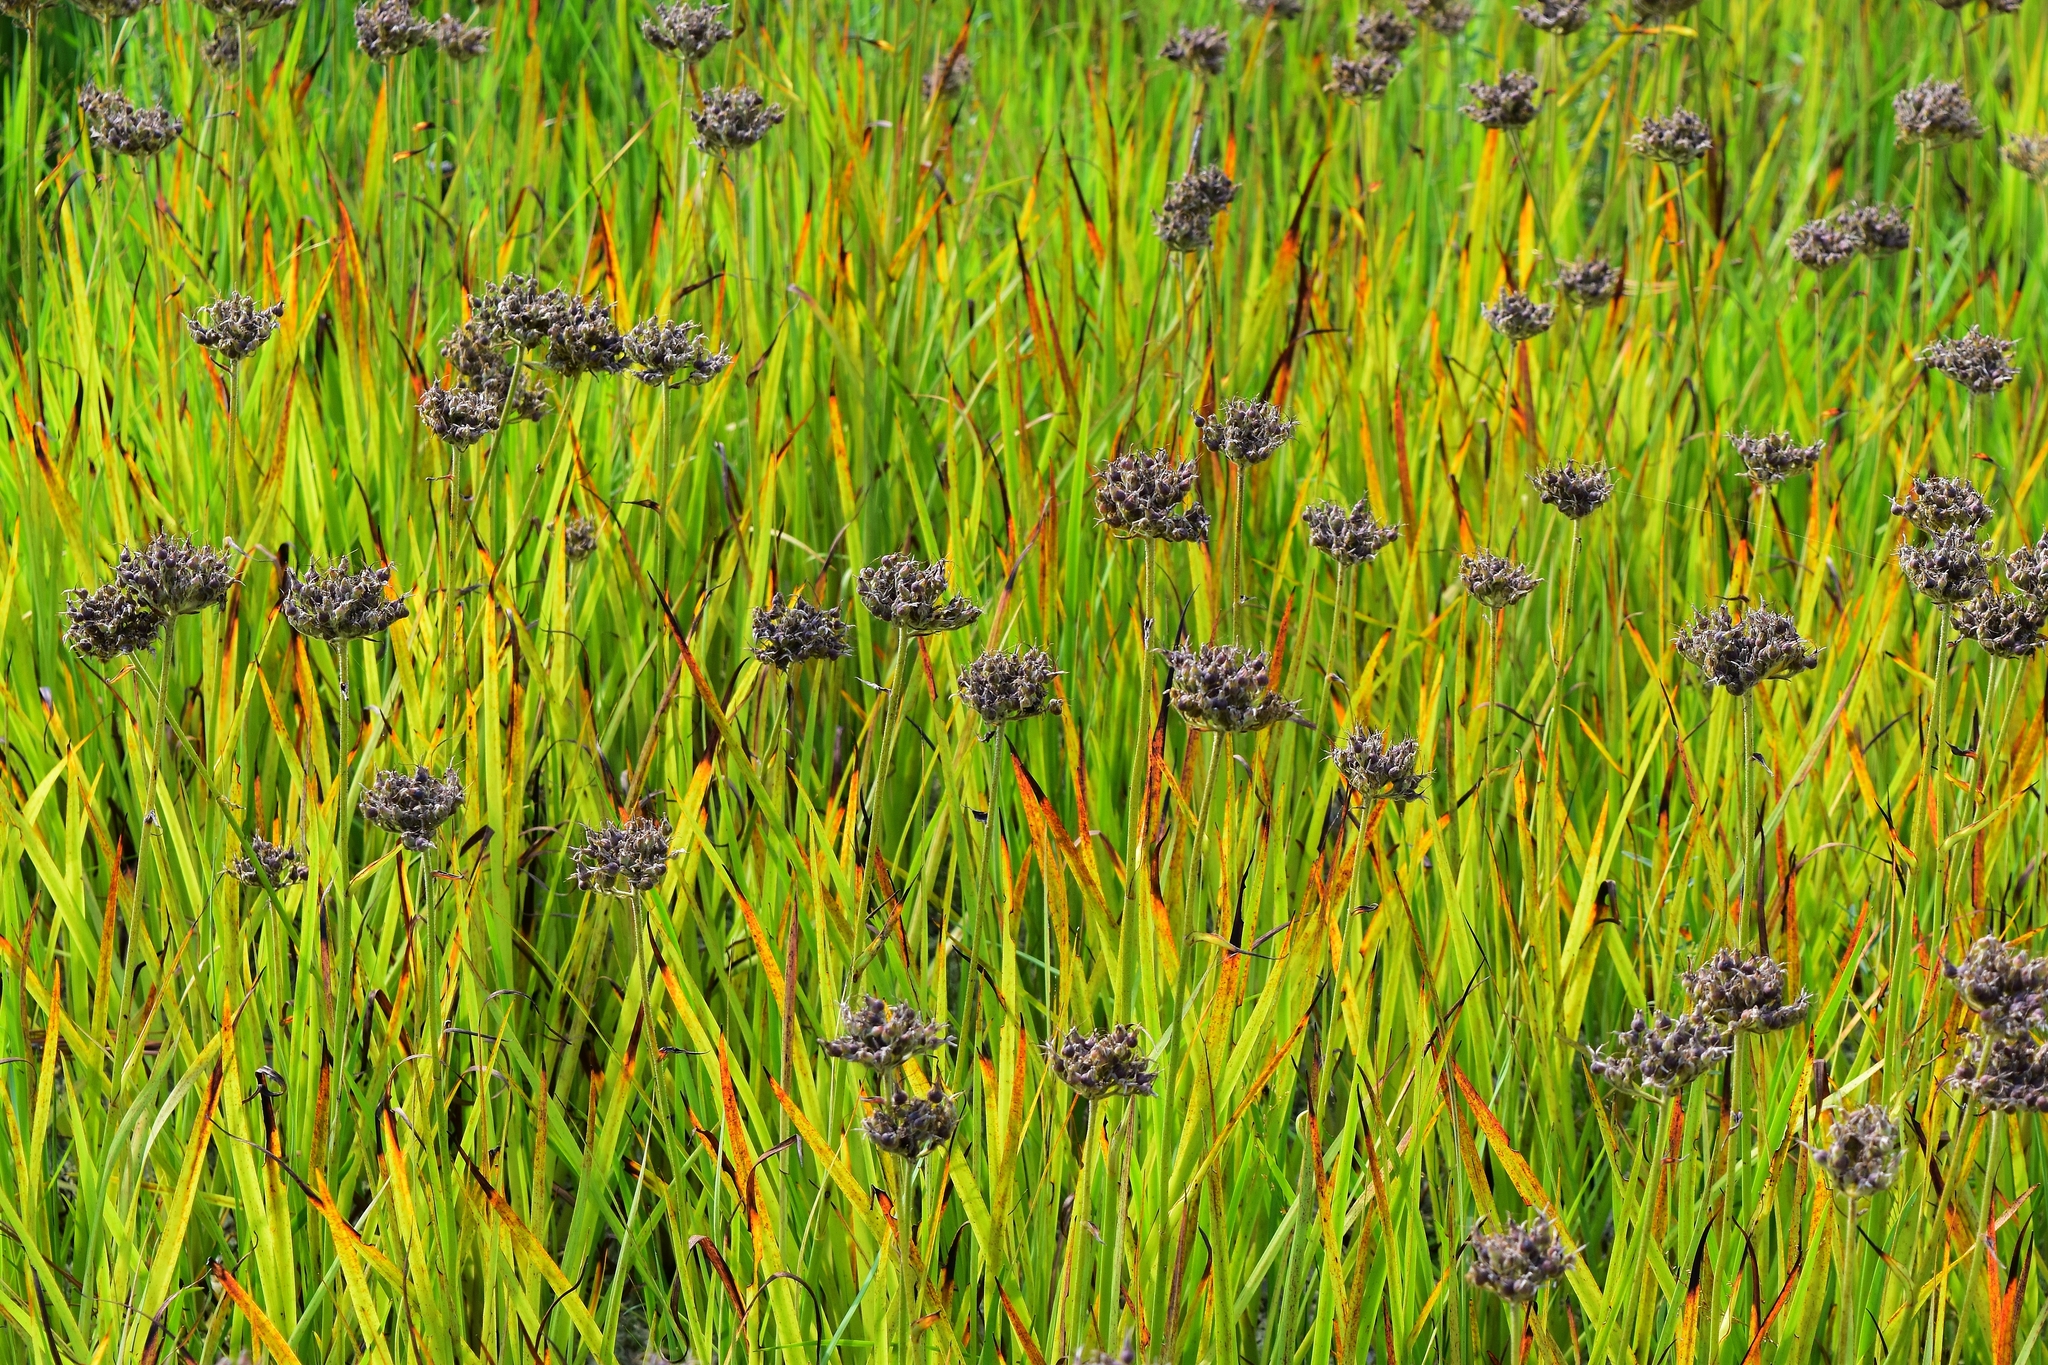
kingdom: Plantae
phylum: Tracheophyta
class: Liliopsida
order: Commelinales
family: Haemodoraceae
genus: Lachnanthes
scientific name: Lachnanthes caroliana
